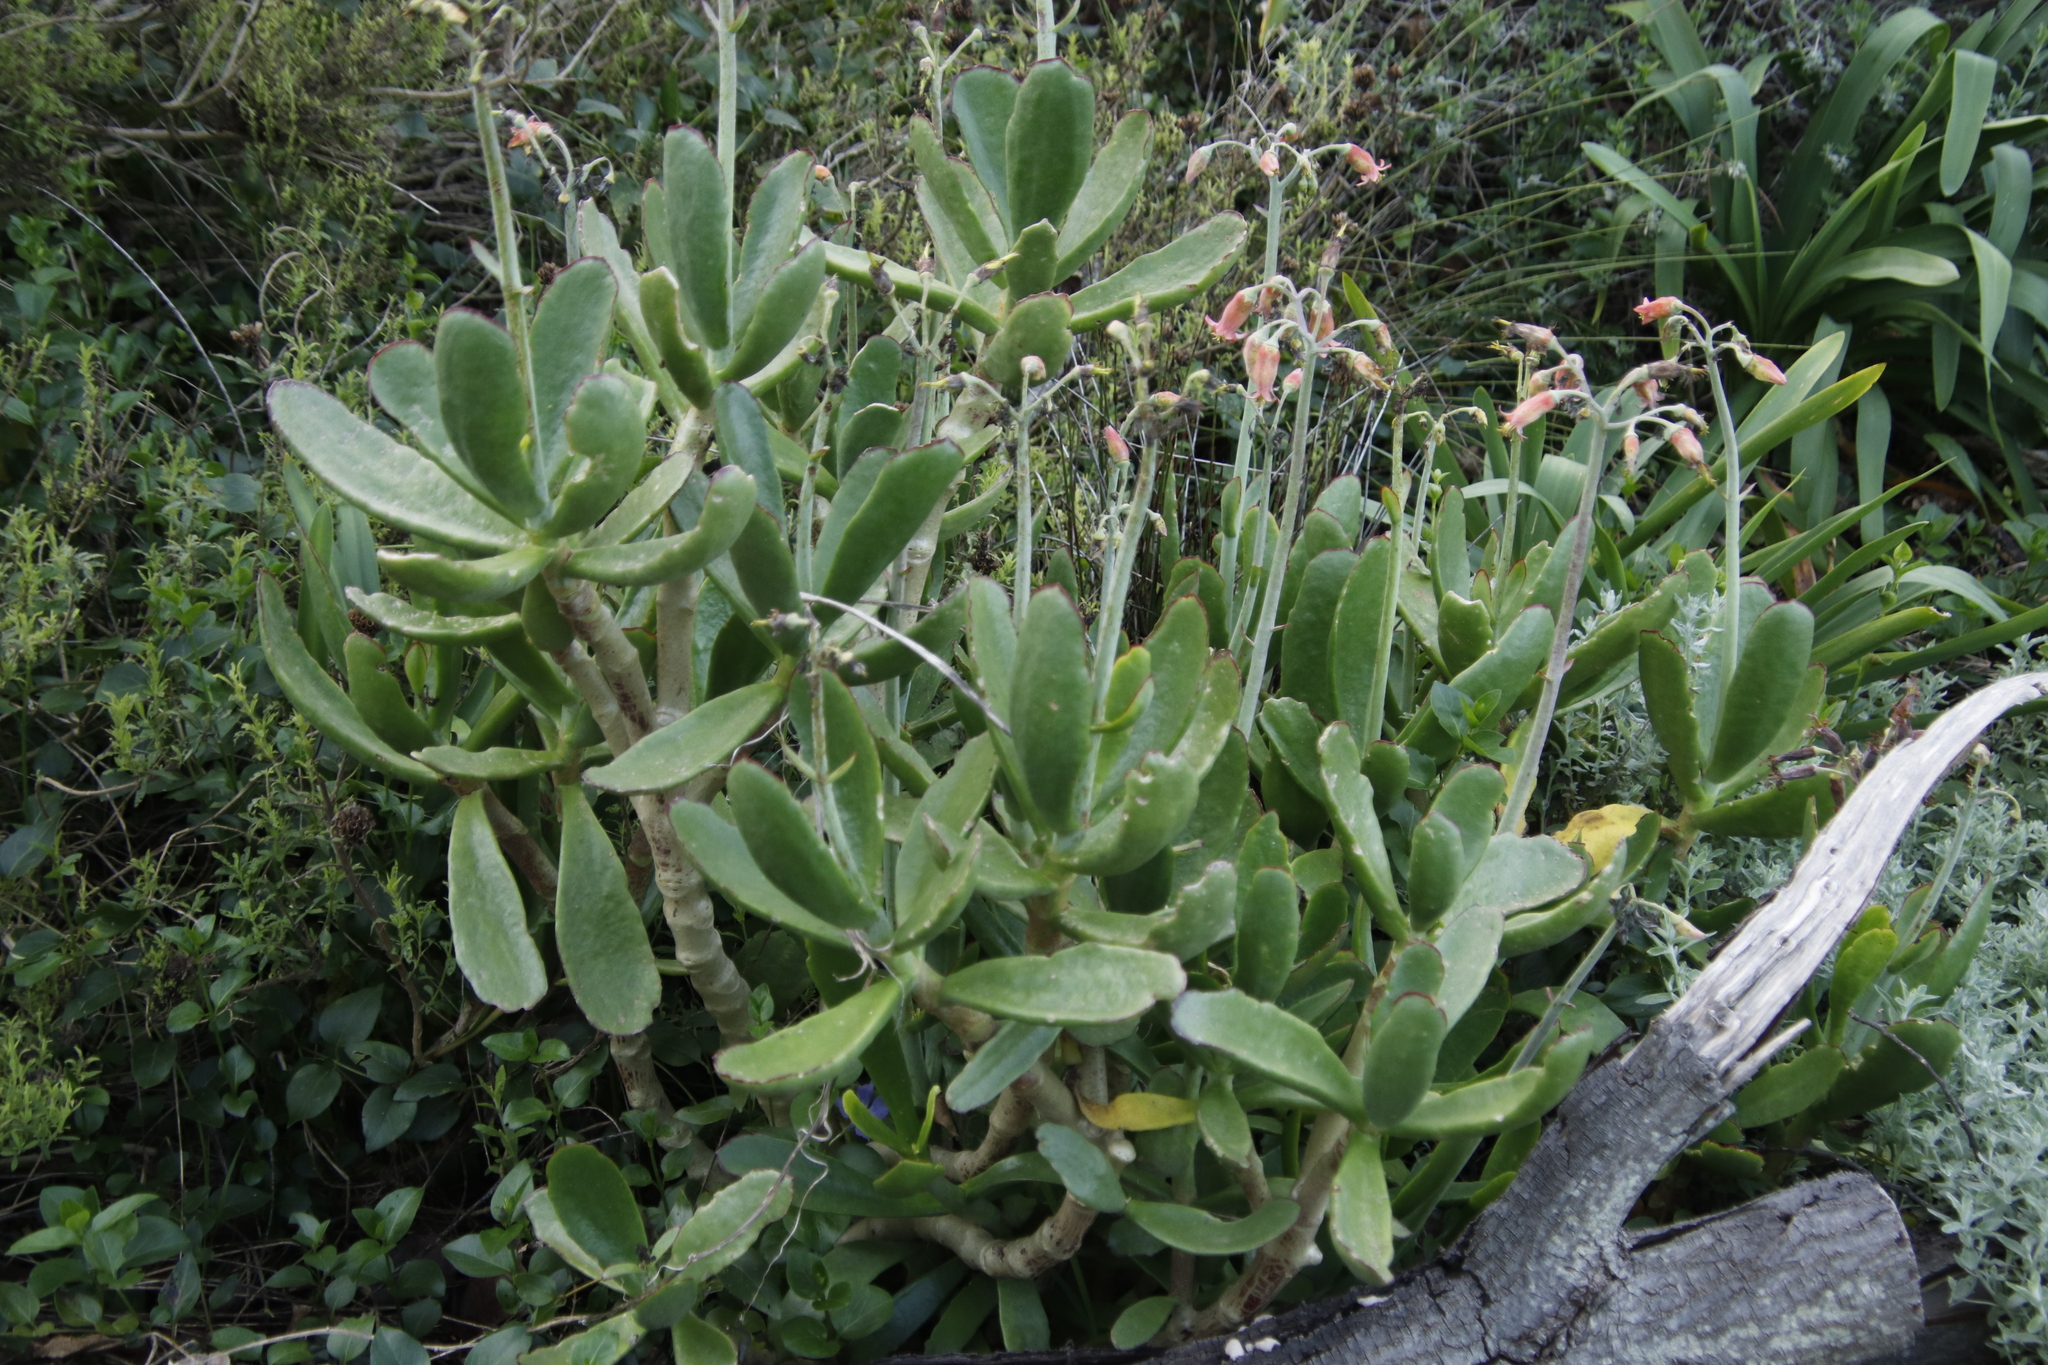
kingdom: Plantae
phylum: Tracheophyta
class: Magnoliopsida
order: Saxifragales
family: Crassulaceae
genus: Cotyledon
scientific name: Cotyledon orbiculata
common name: Pig's ear
